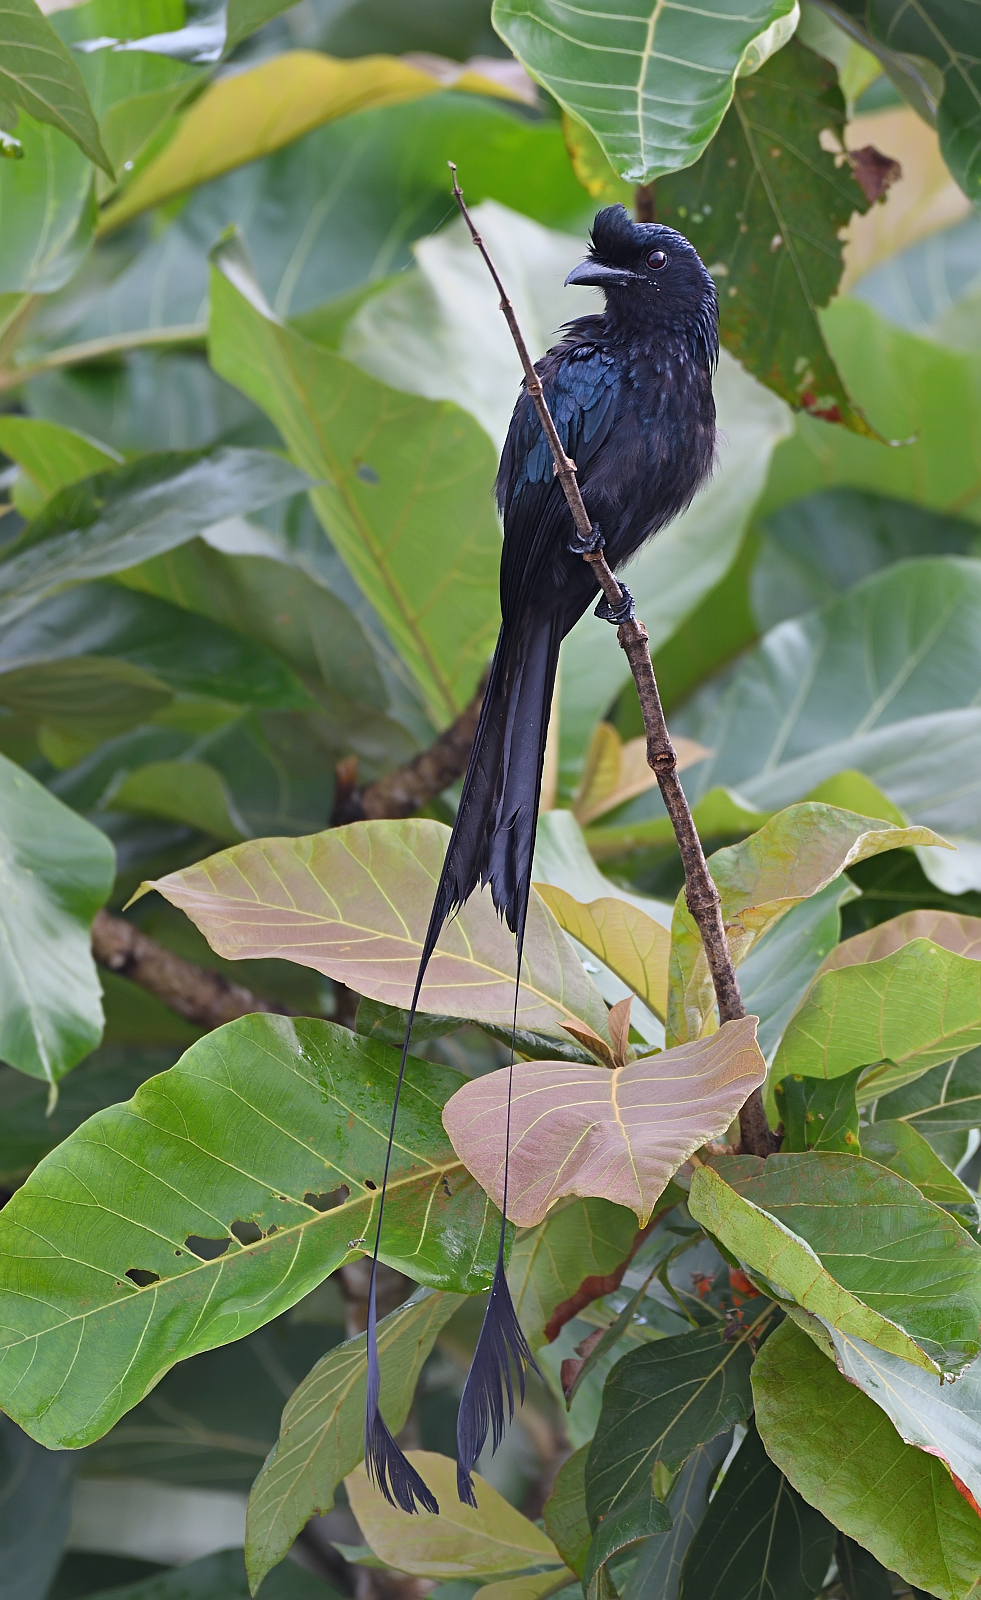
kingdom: Animalia
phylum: Chordata
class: Aves
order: Passeriformes
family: Dicruridae
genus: Dicrurus
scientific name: Dicrurus paradiseus
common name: Greater racket-tailed drongo
